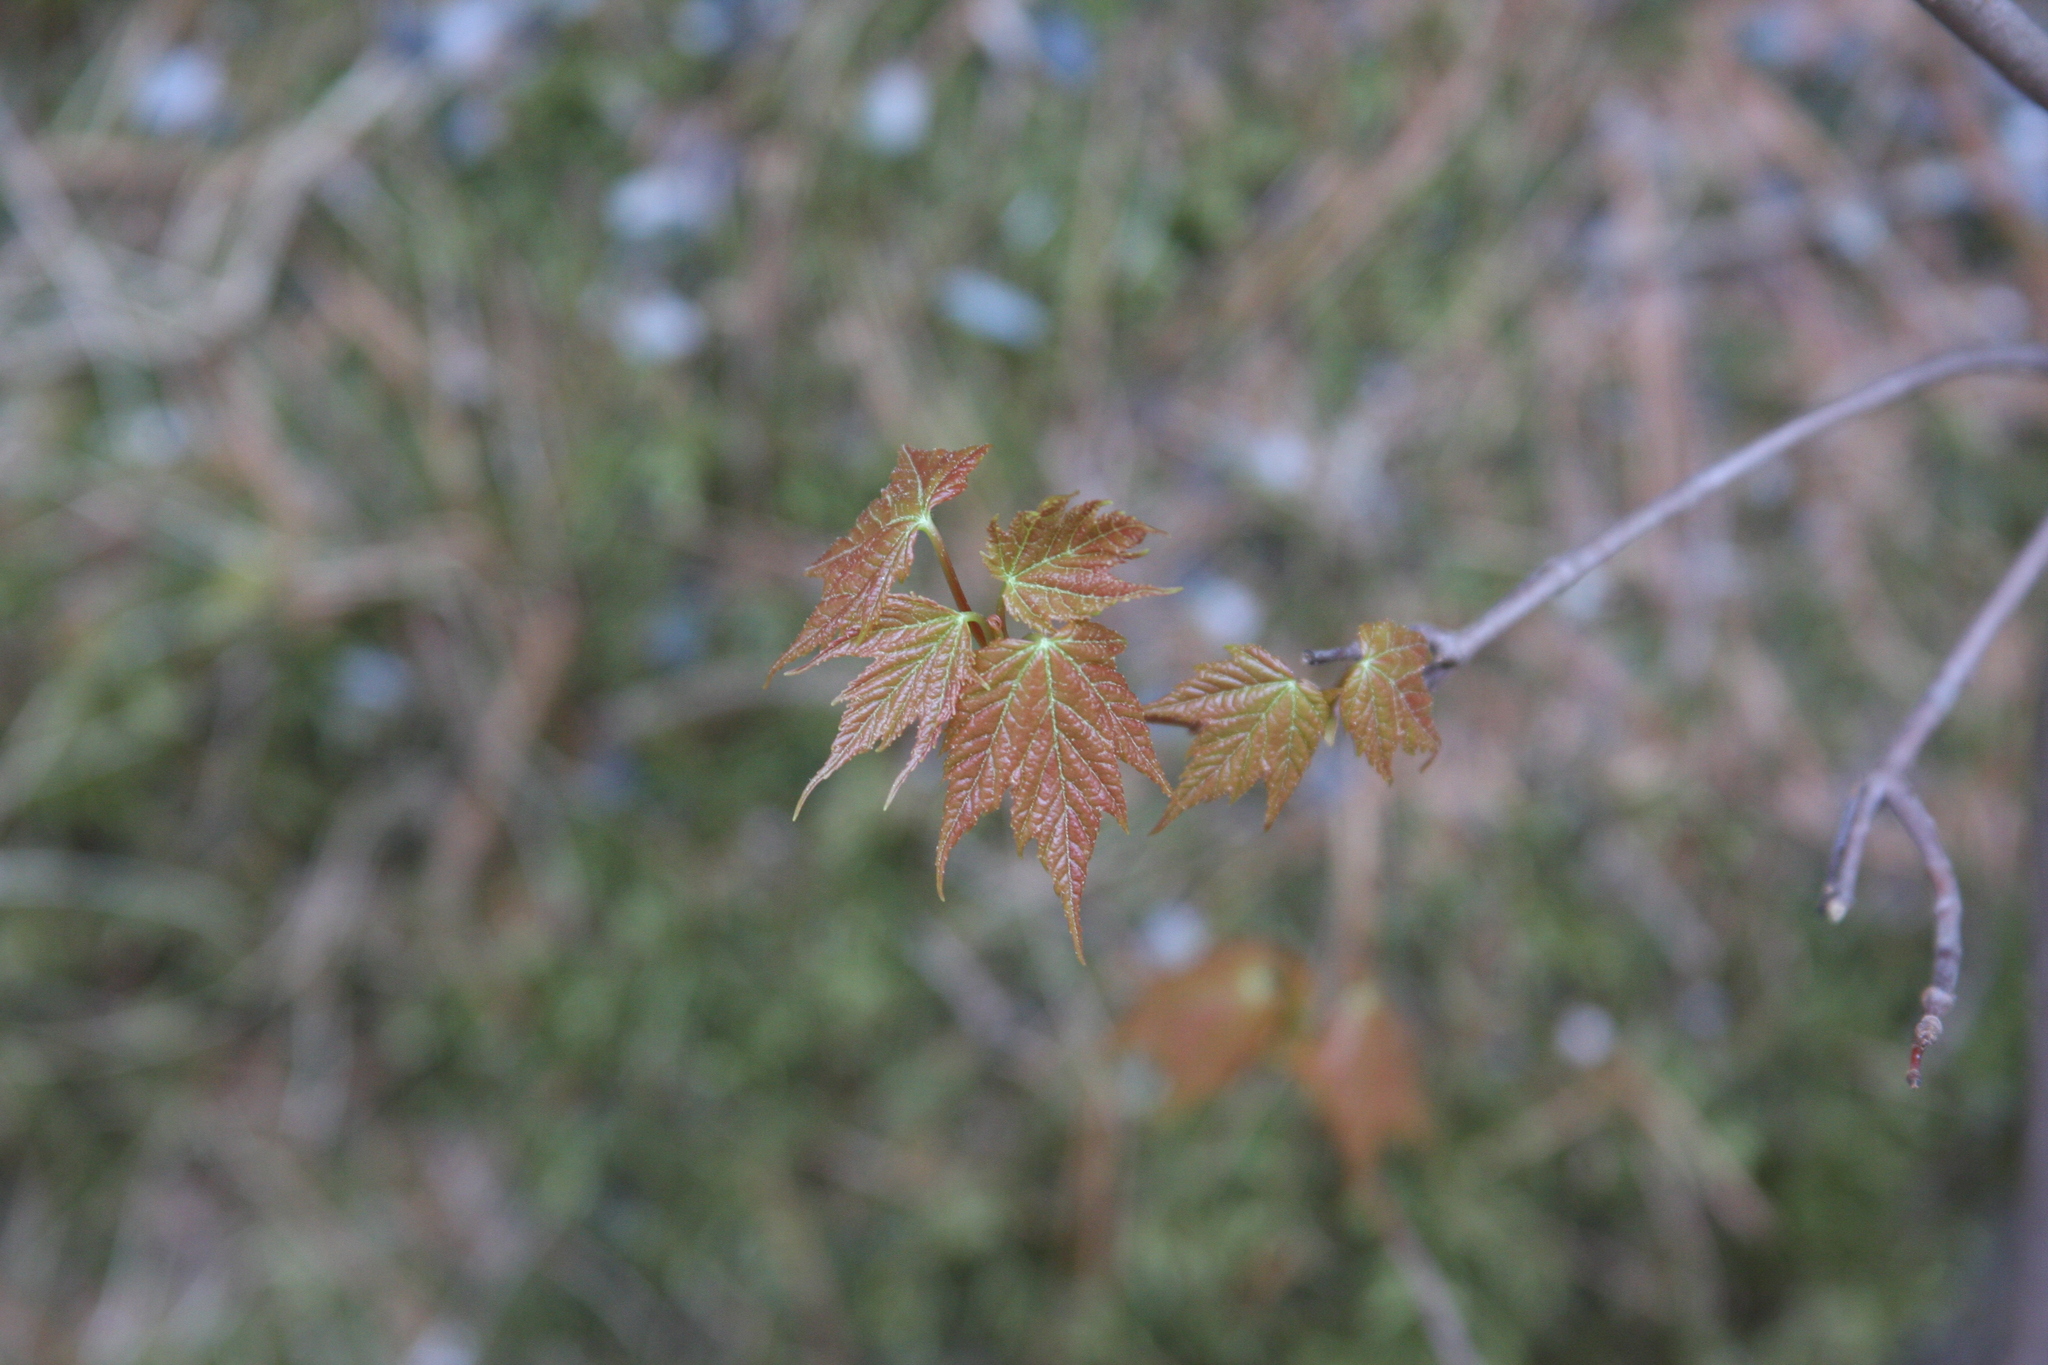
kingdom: Plantae
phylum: Tracheophyta
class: Magnoliopsida
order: Sapindales
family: Sapindaceae
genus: Acer
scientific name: Acer rubrum
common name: Red maple
